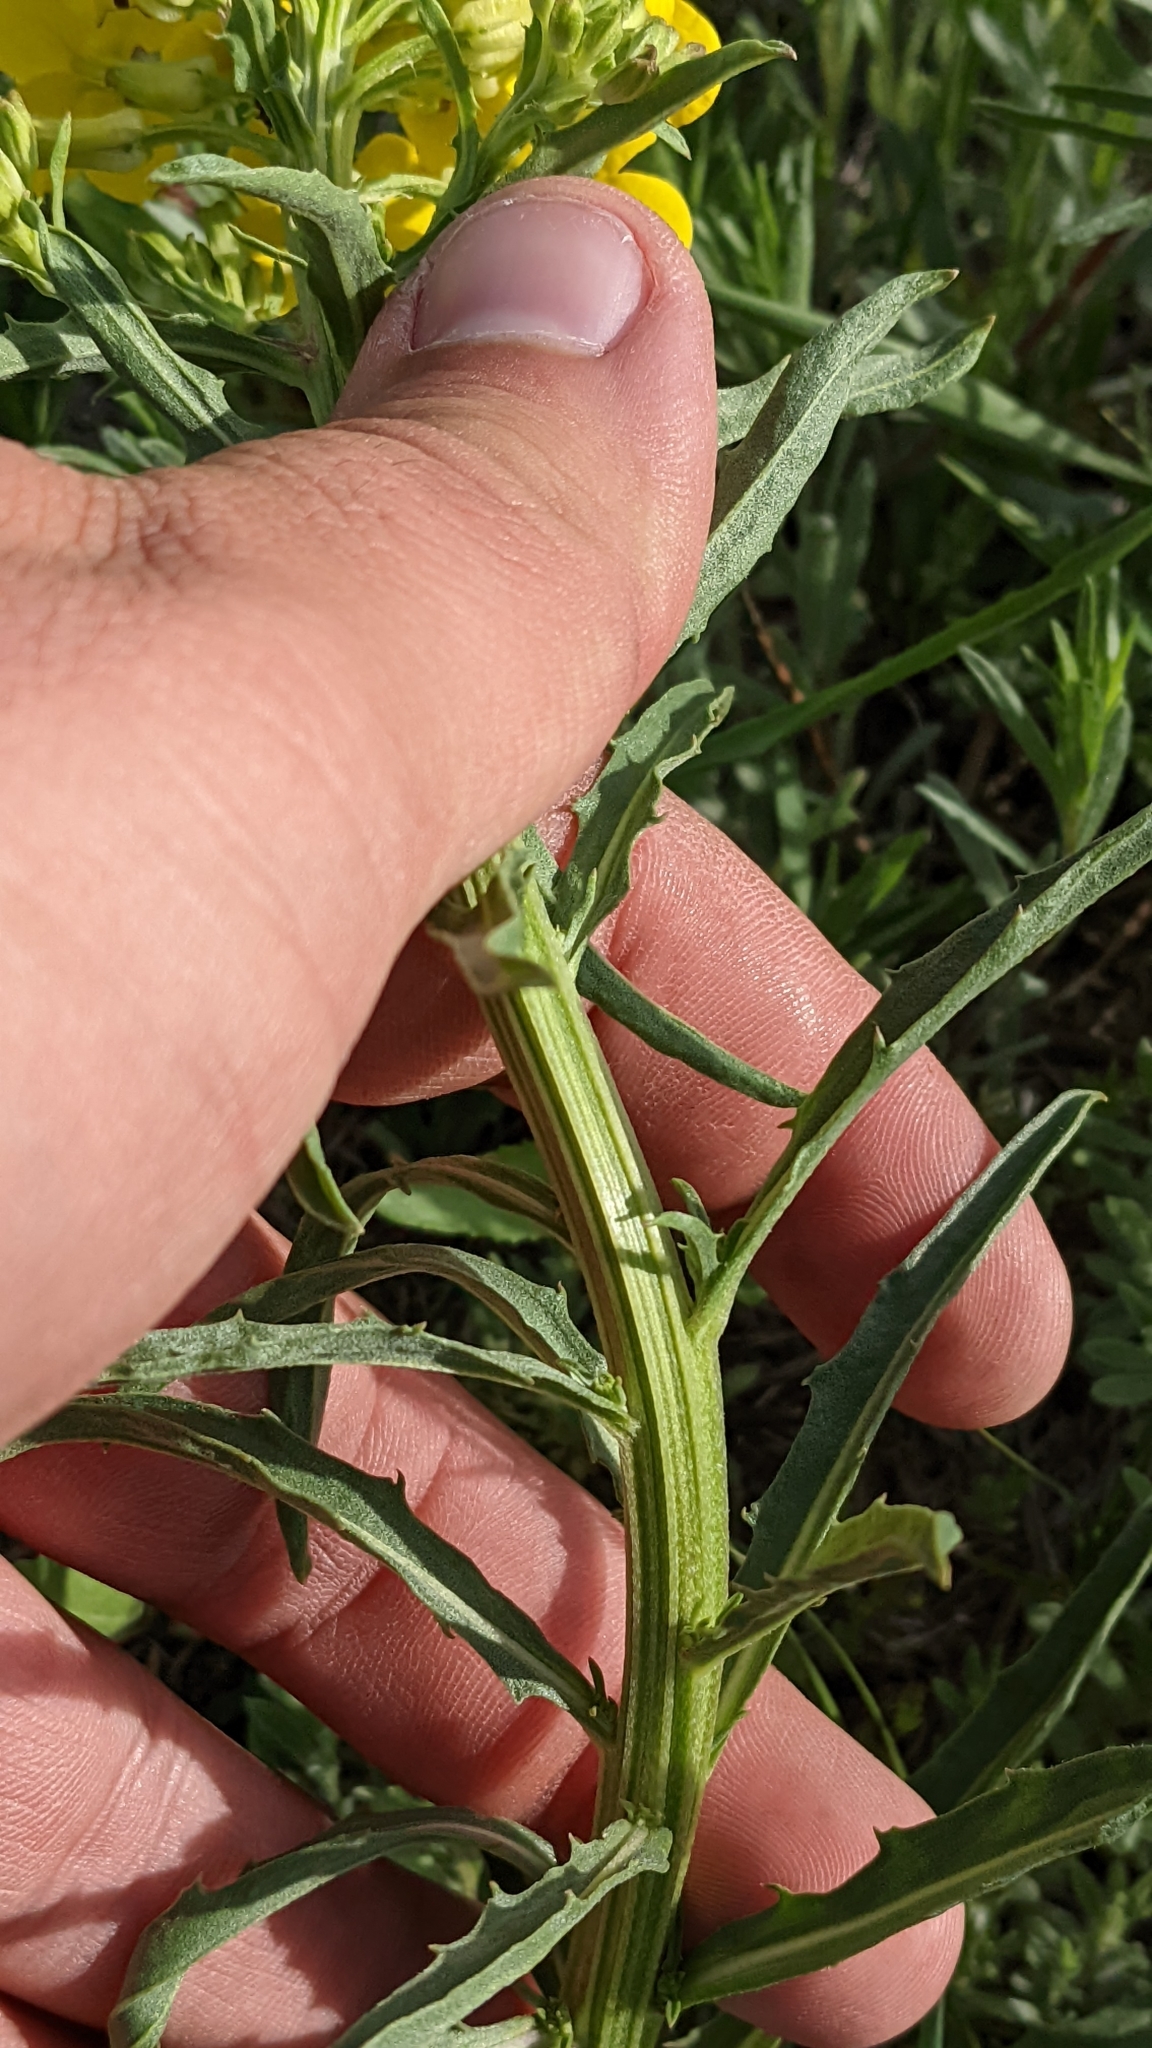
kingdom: Plantae
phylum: Tracheophyta
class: Magnoliopsida
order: Brassicales
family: Brassicaceae
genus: Erysimum
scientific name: Erysimum asperum
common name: Western wallflower
